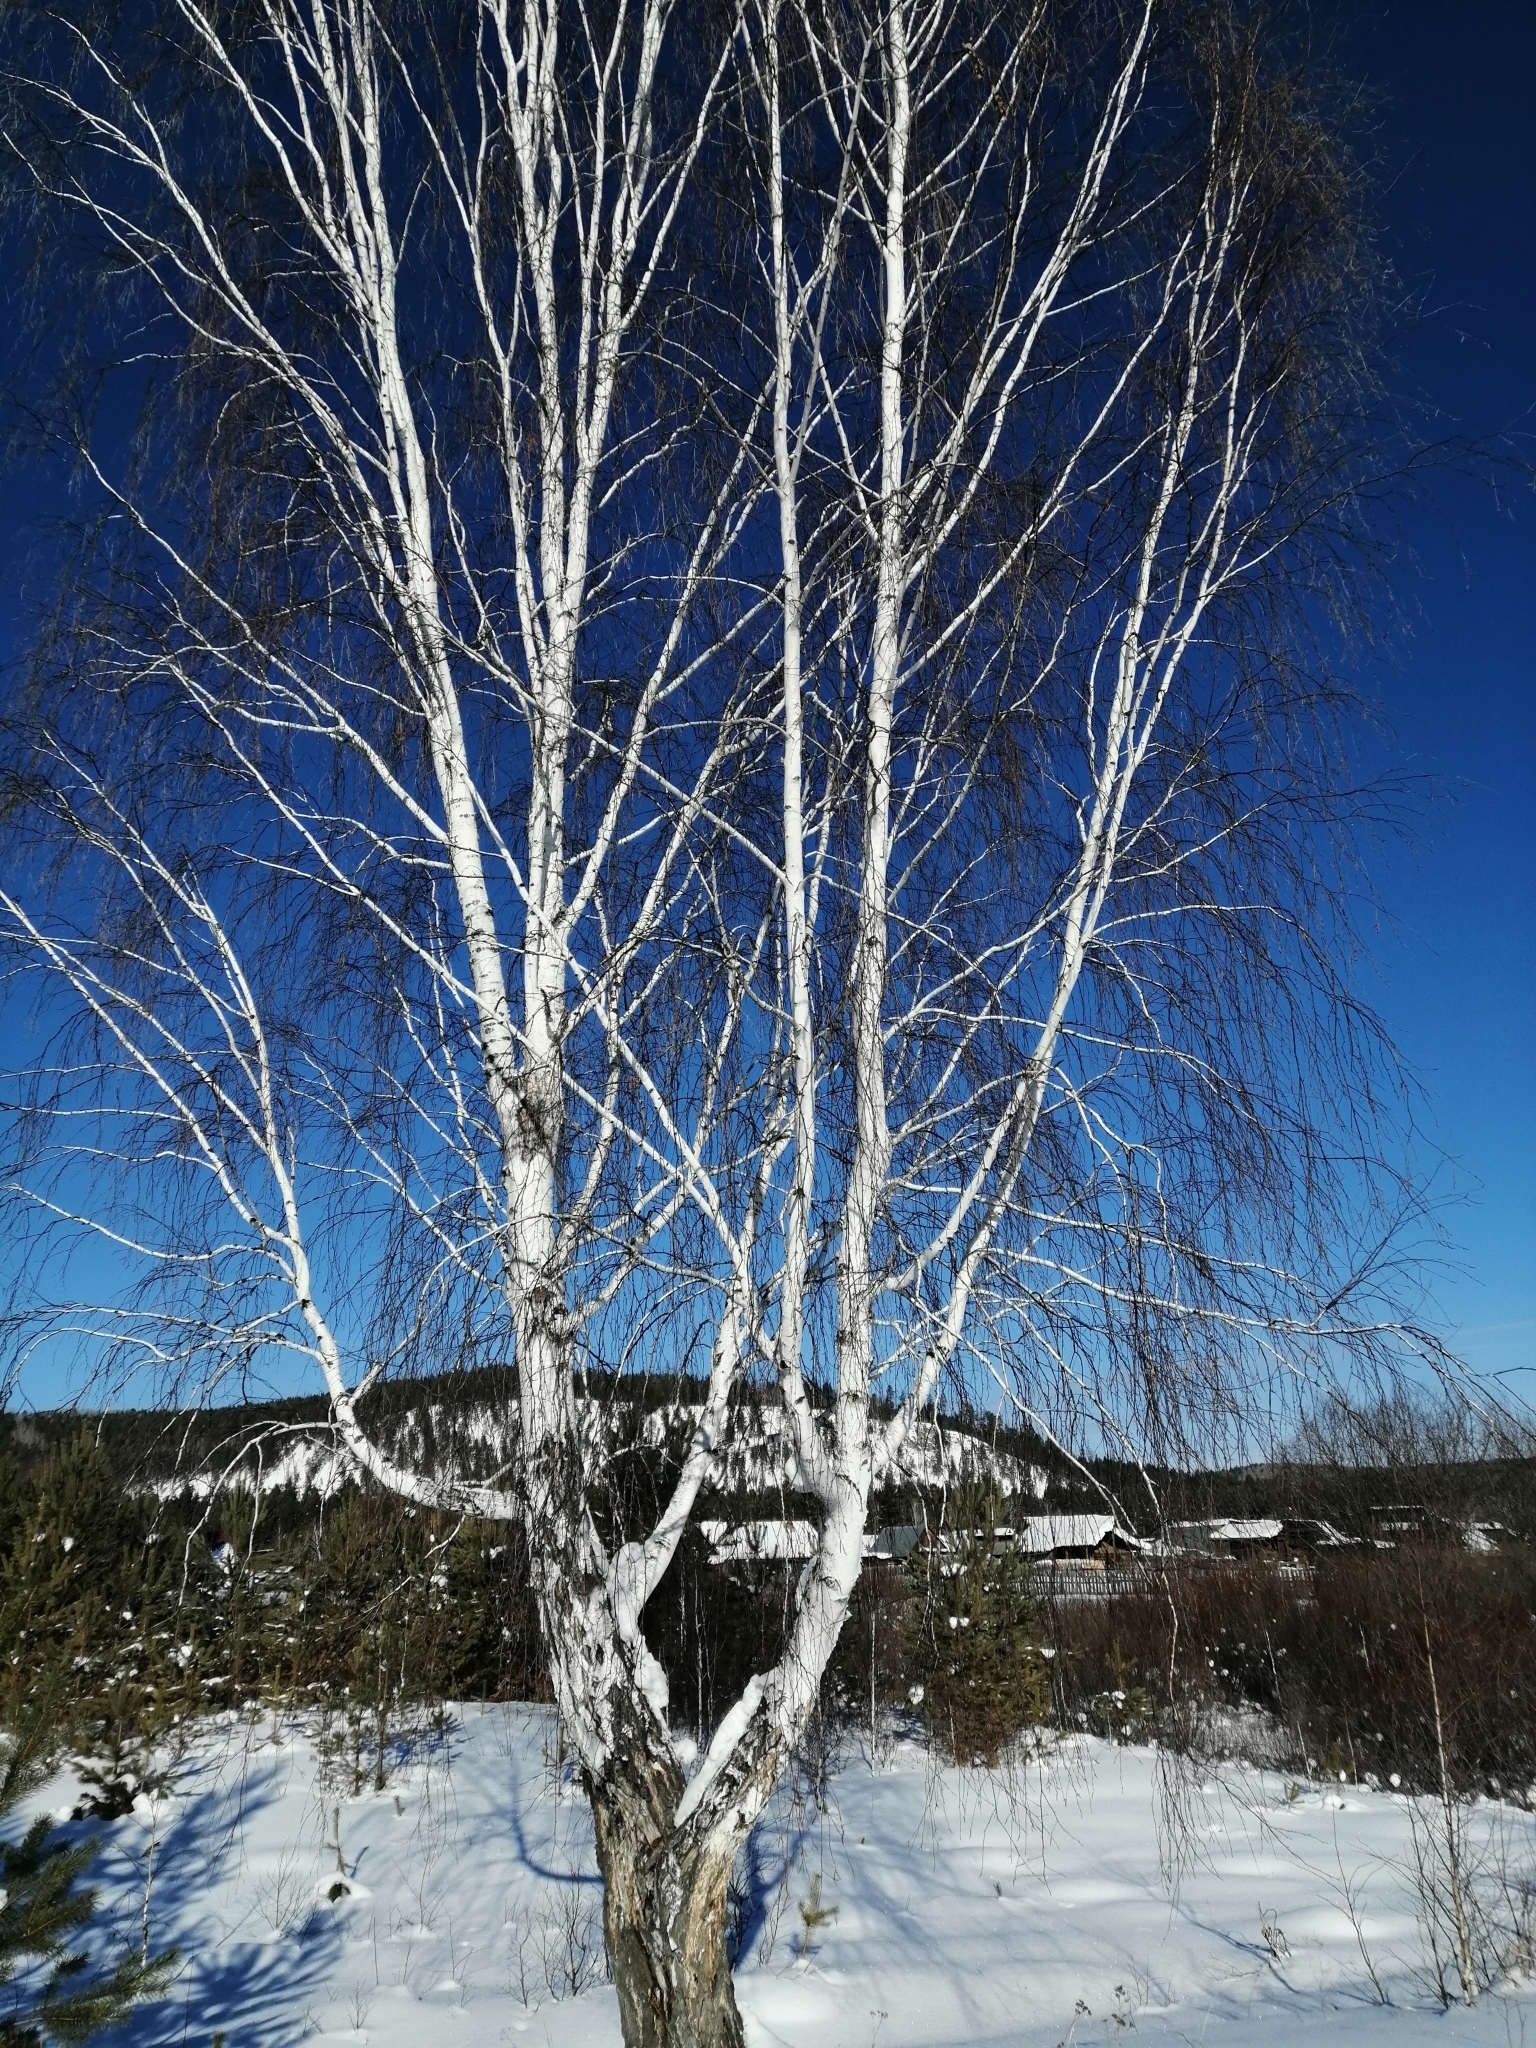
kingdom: Plantae
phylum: Tracheophyta
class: Magnoliopsida
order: Fagales
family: Betulaceae
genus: Betula
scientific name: Betula pendula
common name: Silver birch
